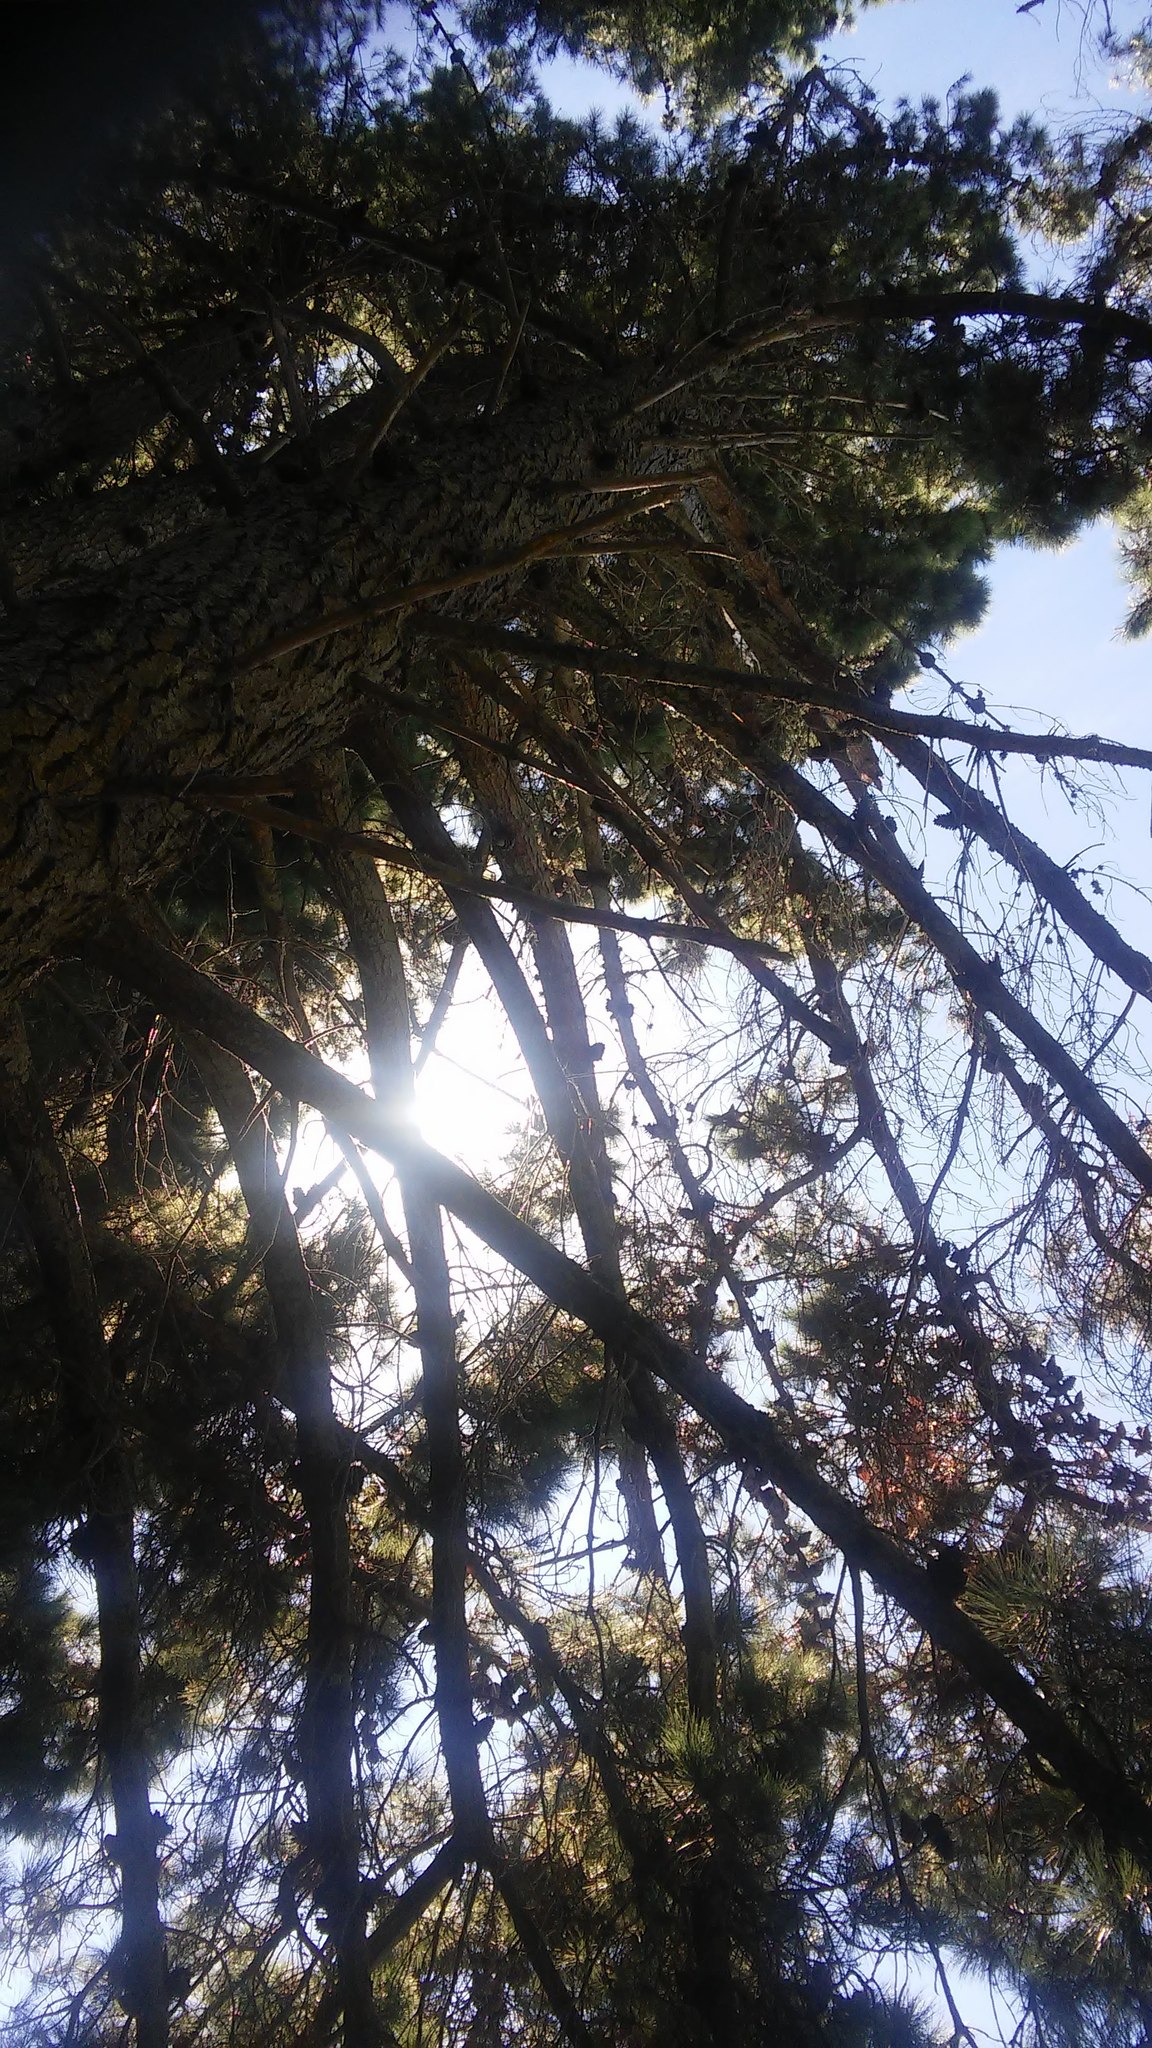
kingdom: Plantae
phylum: Tracheophyta
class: Pinopsida
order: Pinales
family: Pinaceae
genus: Pinus
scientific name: Pinus radiata
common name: Monterey pine
